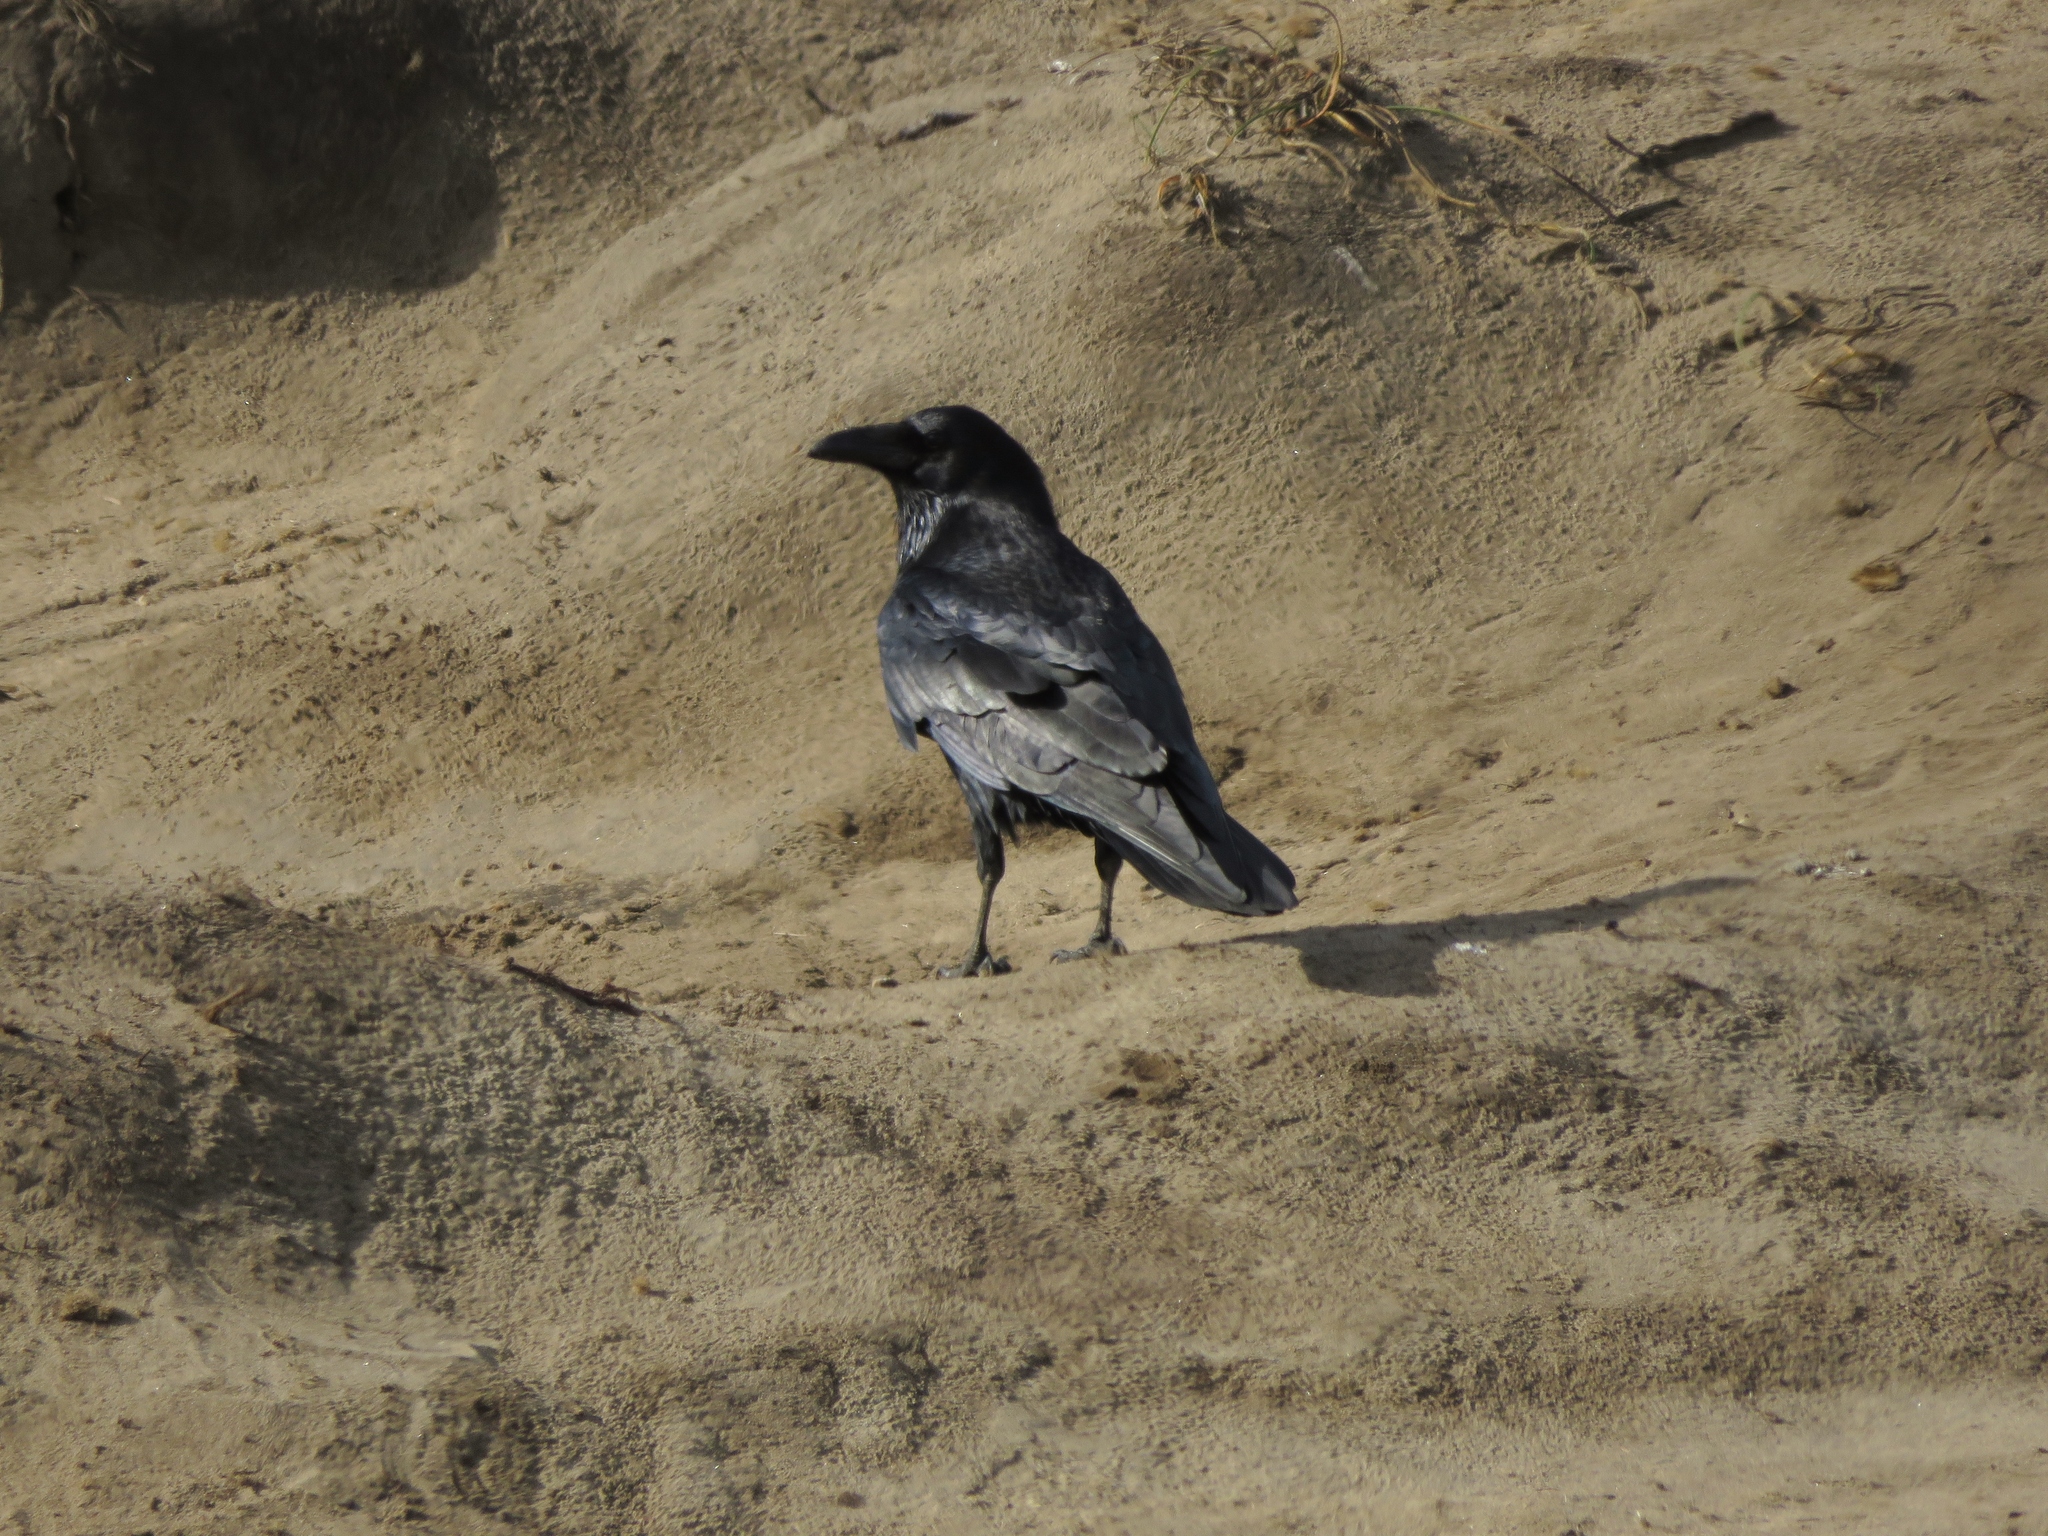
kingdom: Animalia
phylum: Chordata
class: Aves
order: Passeriformes
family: Corvidae
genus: Corvus
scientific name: Corvus corax
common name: Common raven
